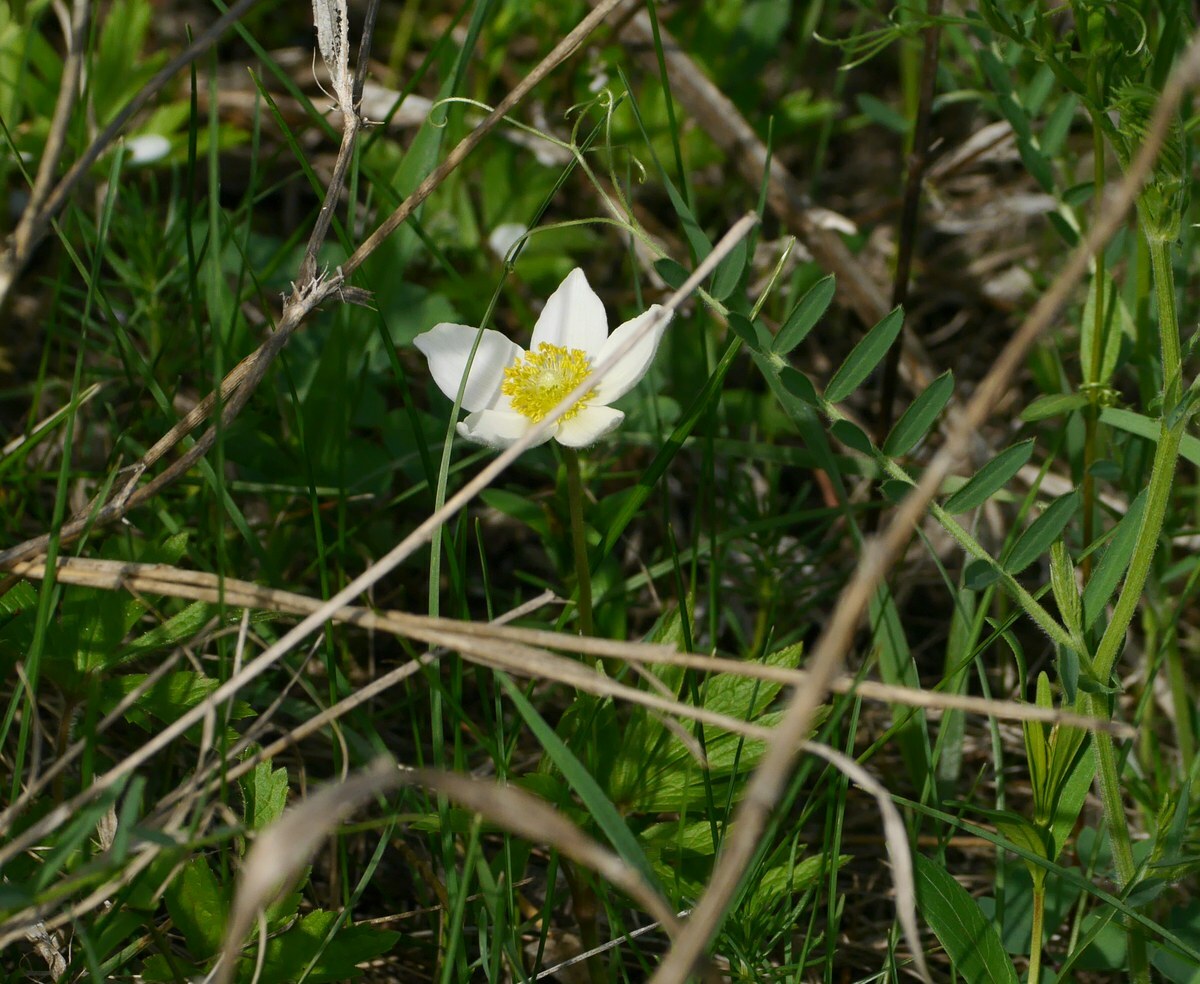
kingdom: Plantae
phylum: Tracheophyta
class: Magnoliopsida
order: Ranunculales
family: Ranunculaceae
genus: Anemone
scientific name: Anemone sylvestris
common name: Snowdrop anemone
